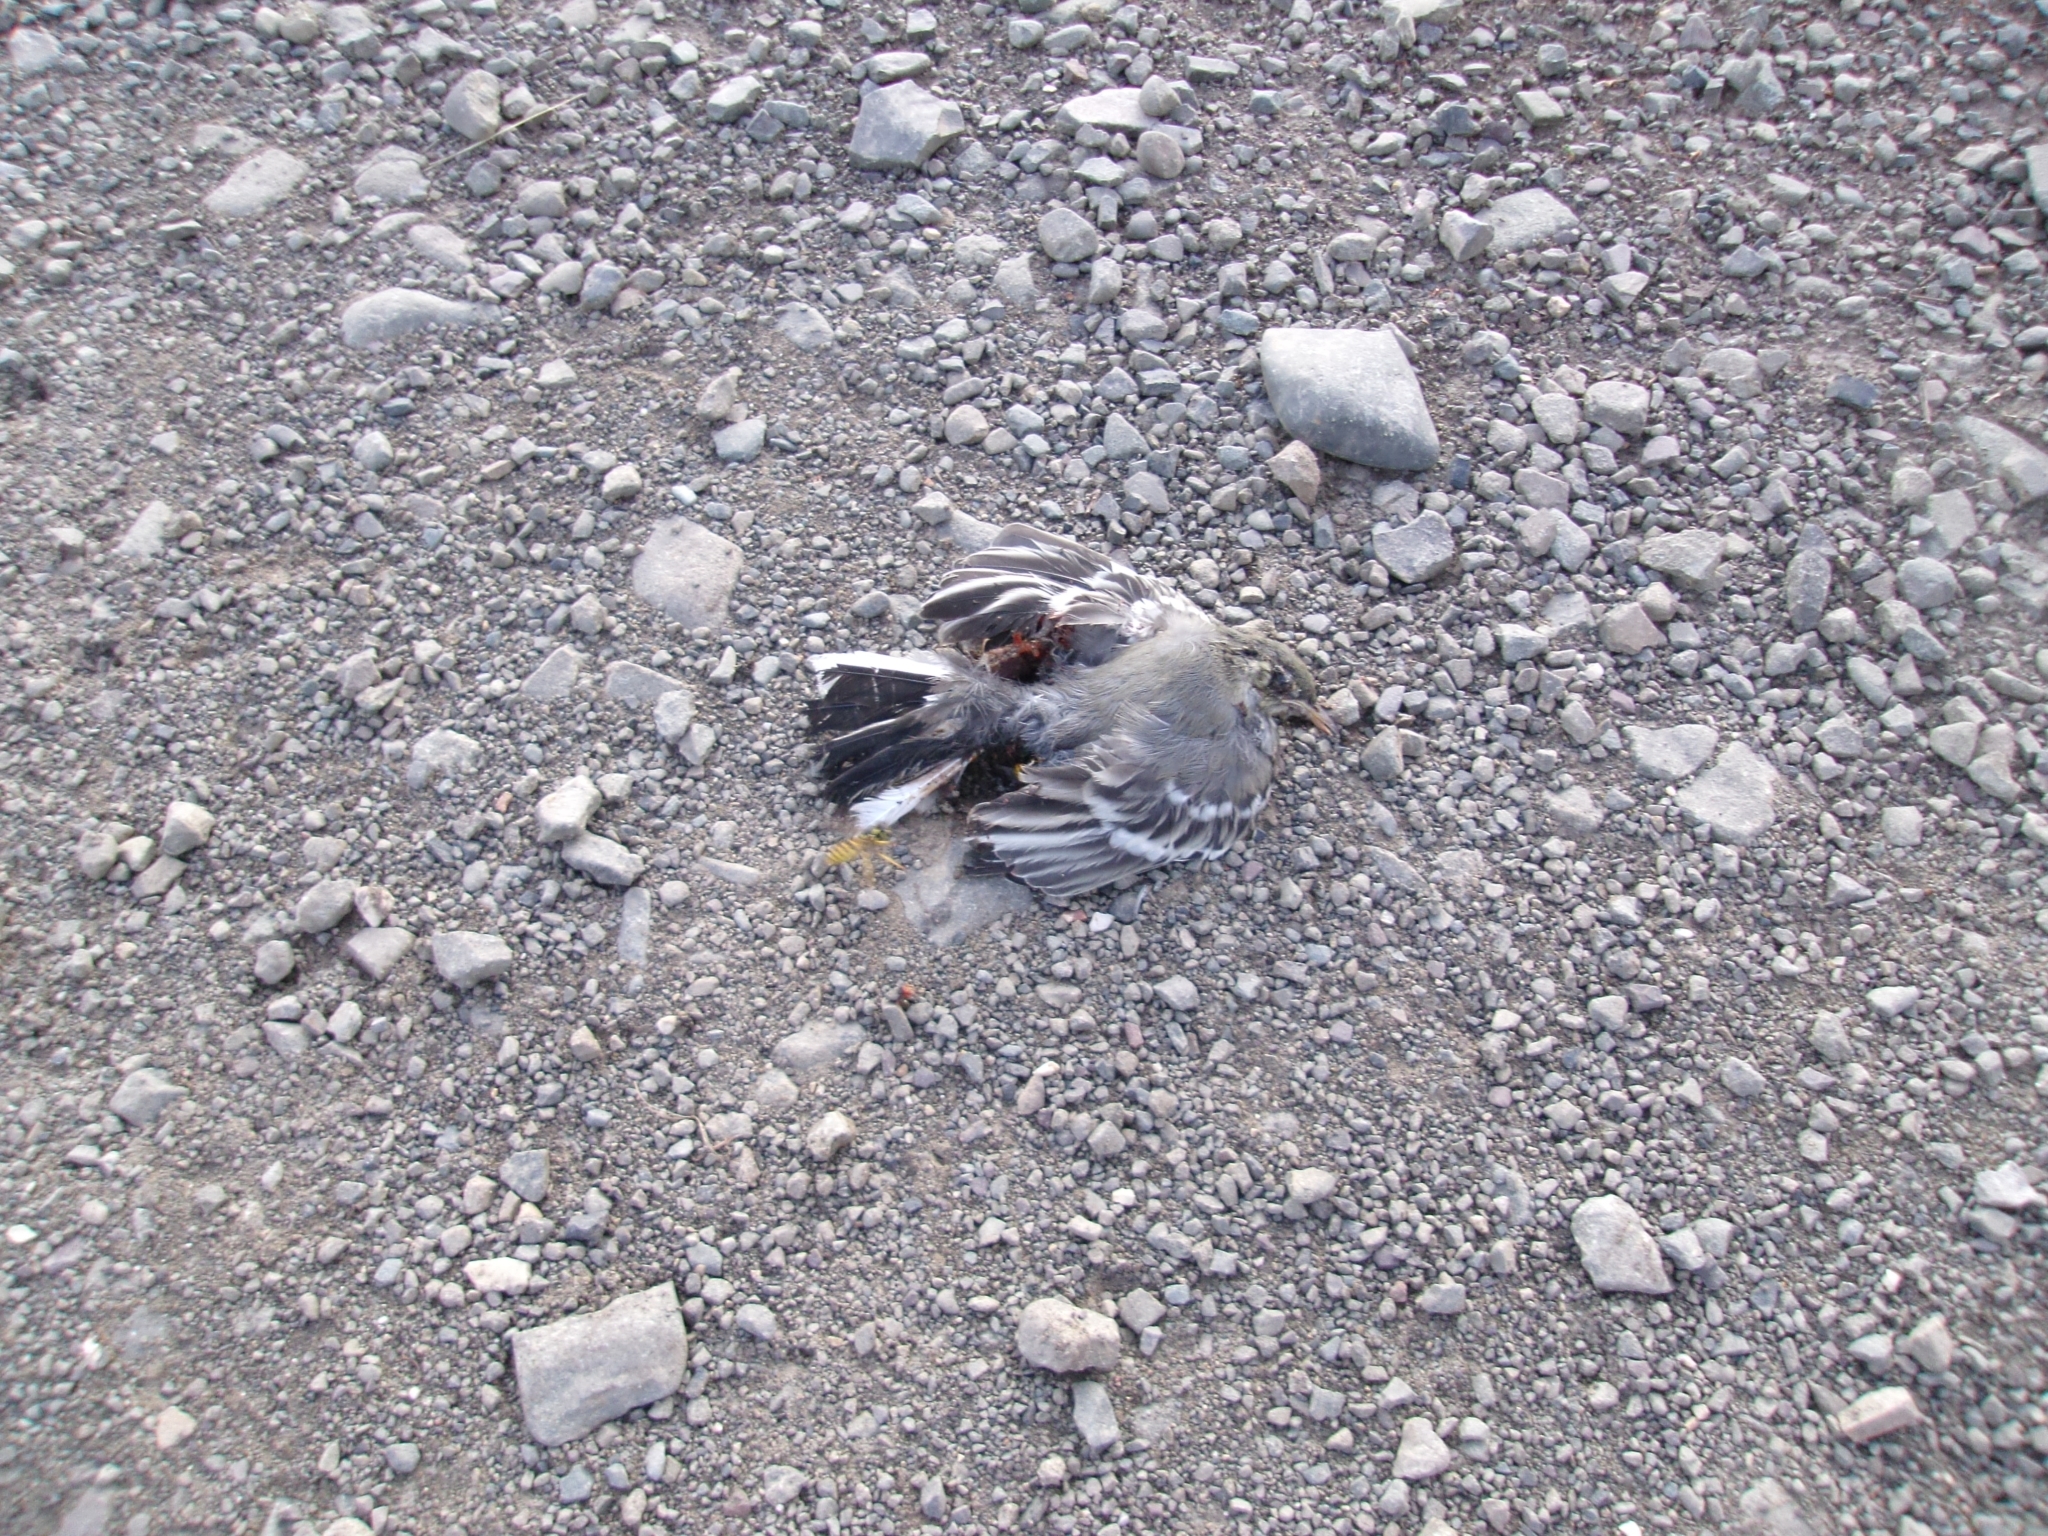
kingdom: Animalia
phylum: Chordata
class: Aves
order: Passeriformes
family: Motacillidae
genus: Motacilla
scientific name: Motacilla alba
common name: White wagtail
